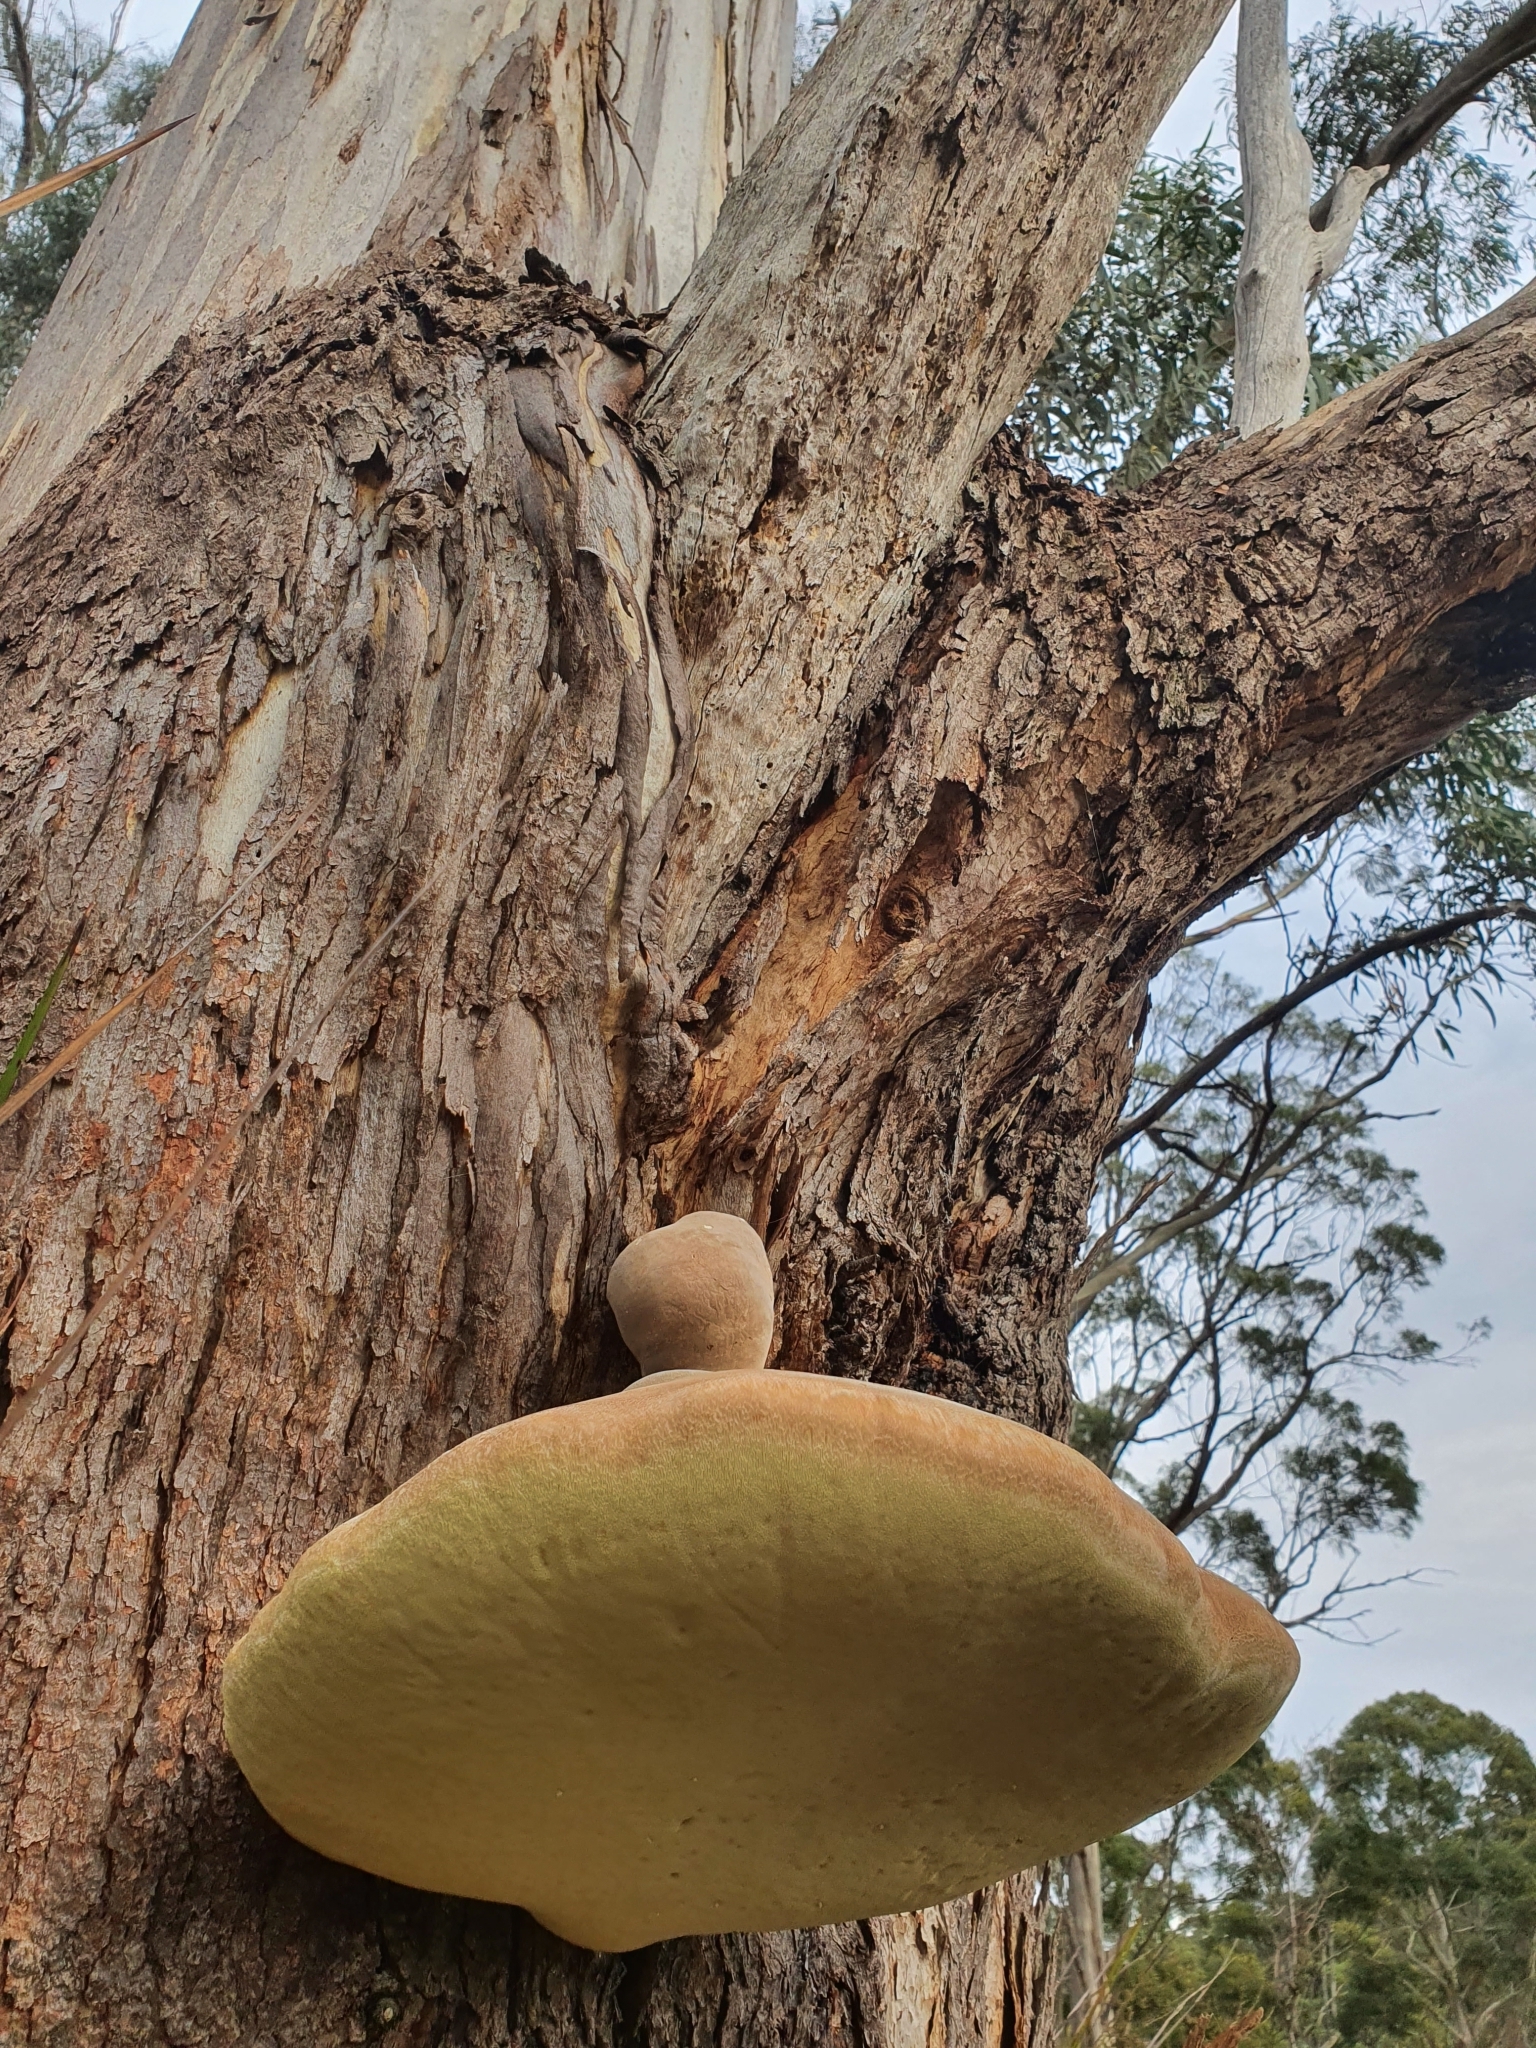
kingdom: Fungi
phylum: Basidiomycota
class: Agaricomycetes
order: Polyporales
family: Laetiporaceae
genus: Laetiporus
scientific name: Laetiporus portentosus
